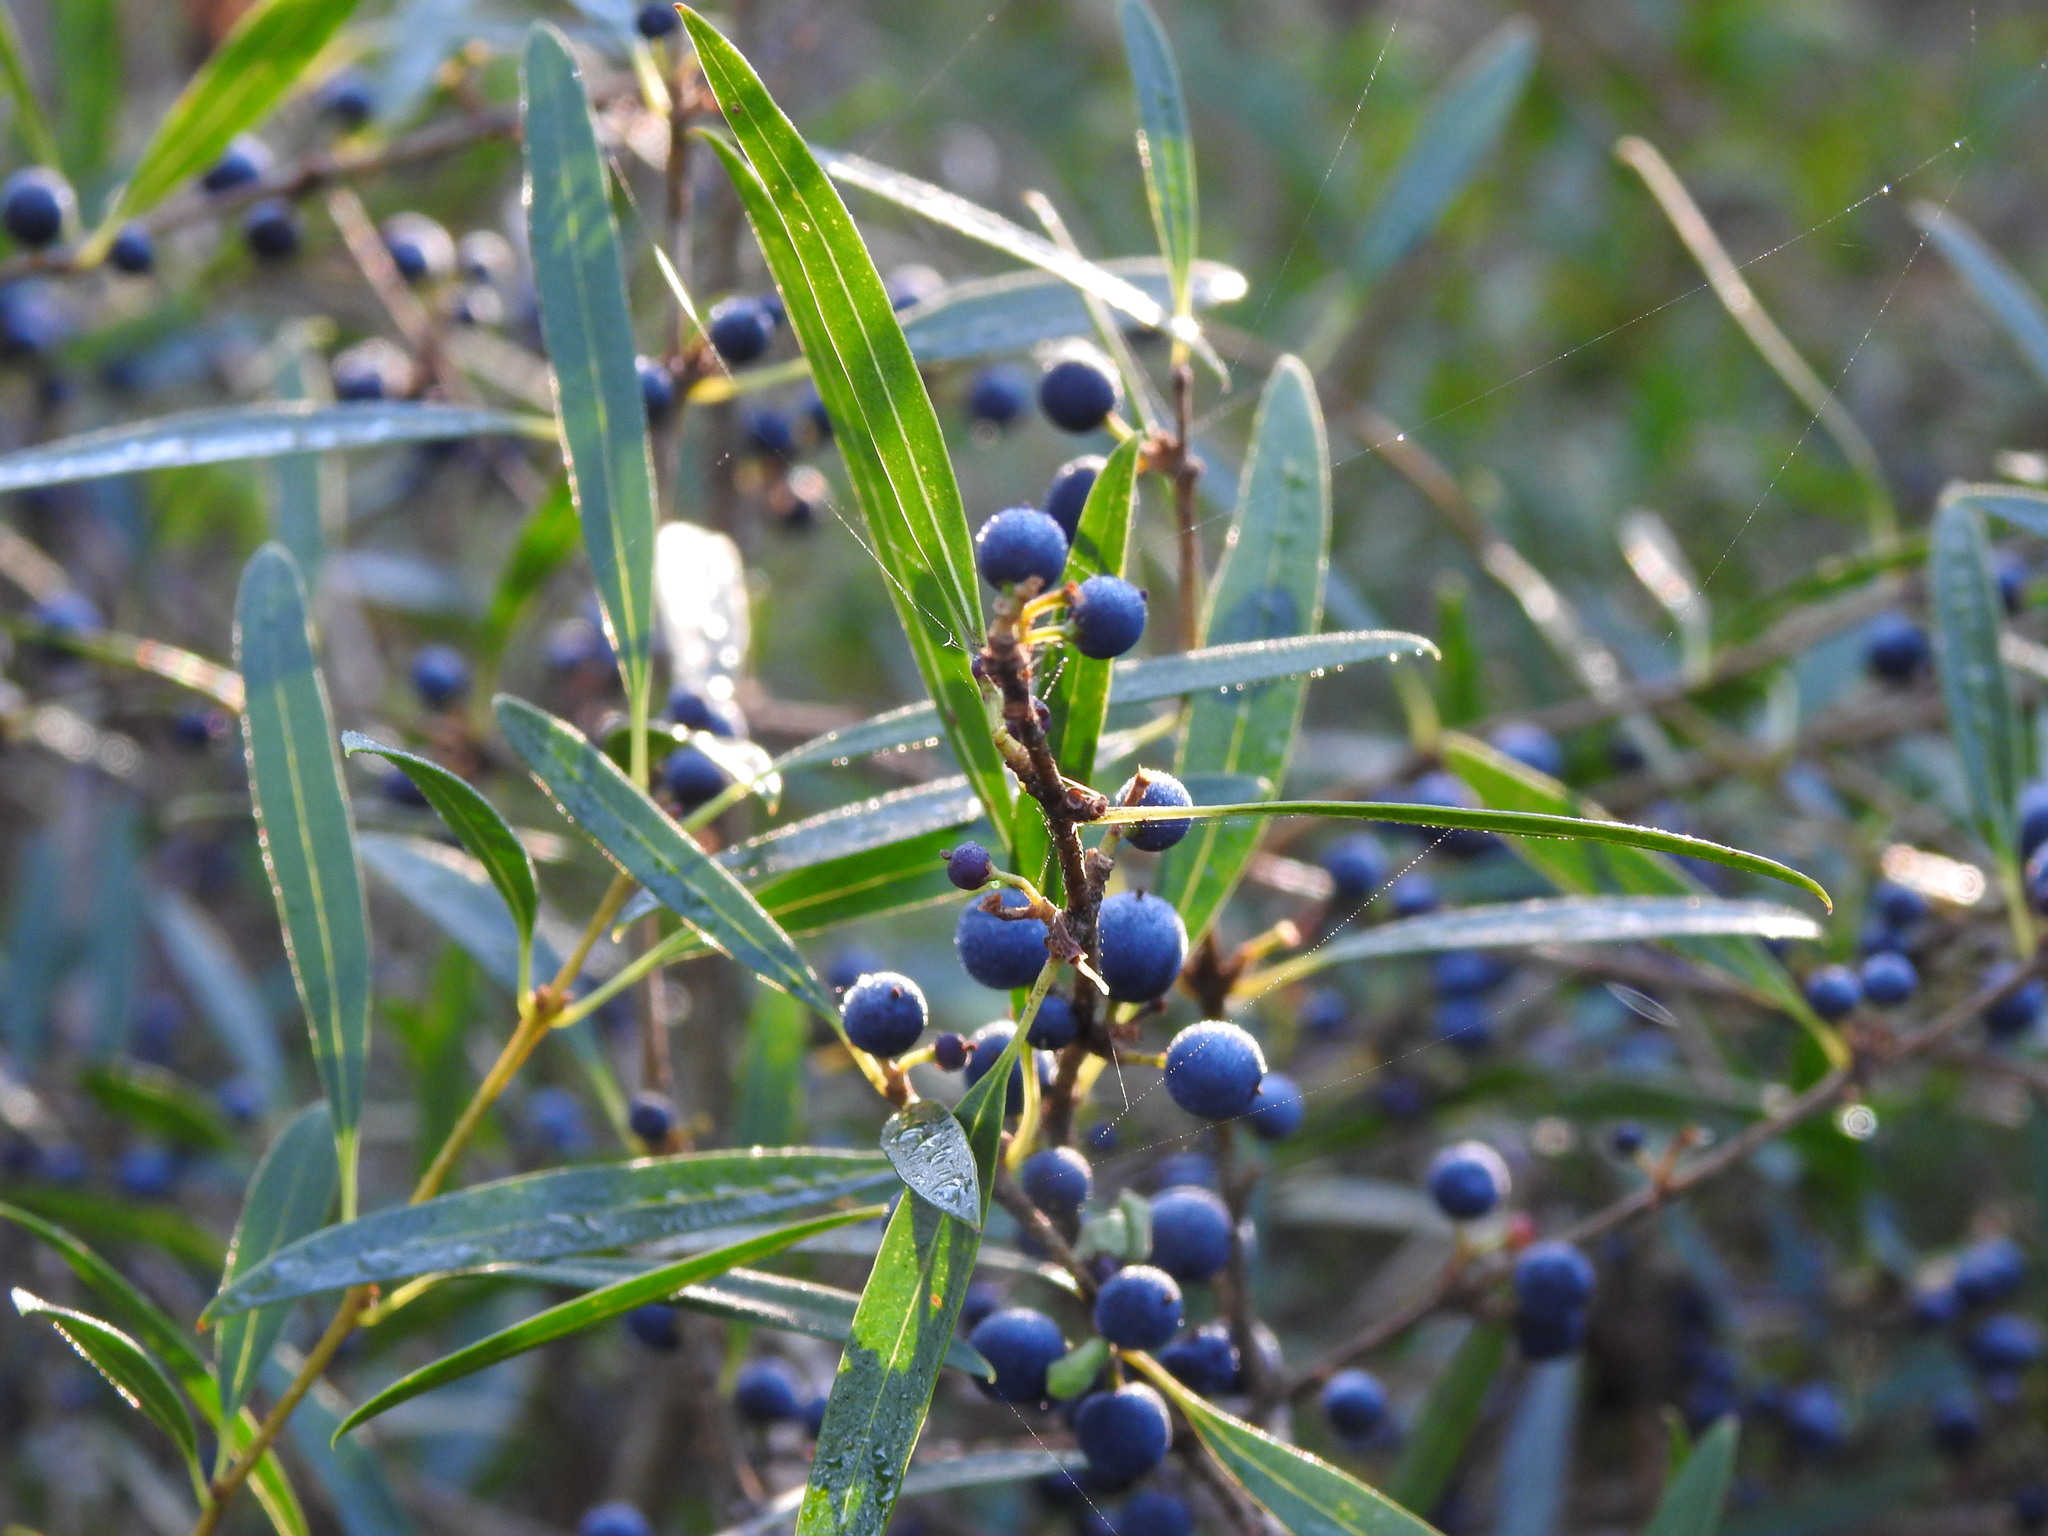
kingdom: Plantae
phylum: Tracheophyta
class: Magnoliopsida
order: Lamiales
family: Oleaceae
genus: Phillyrea
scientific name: Phillyrea angustifolia
